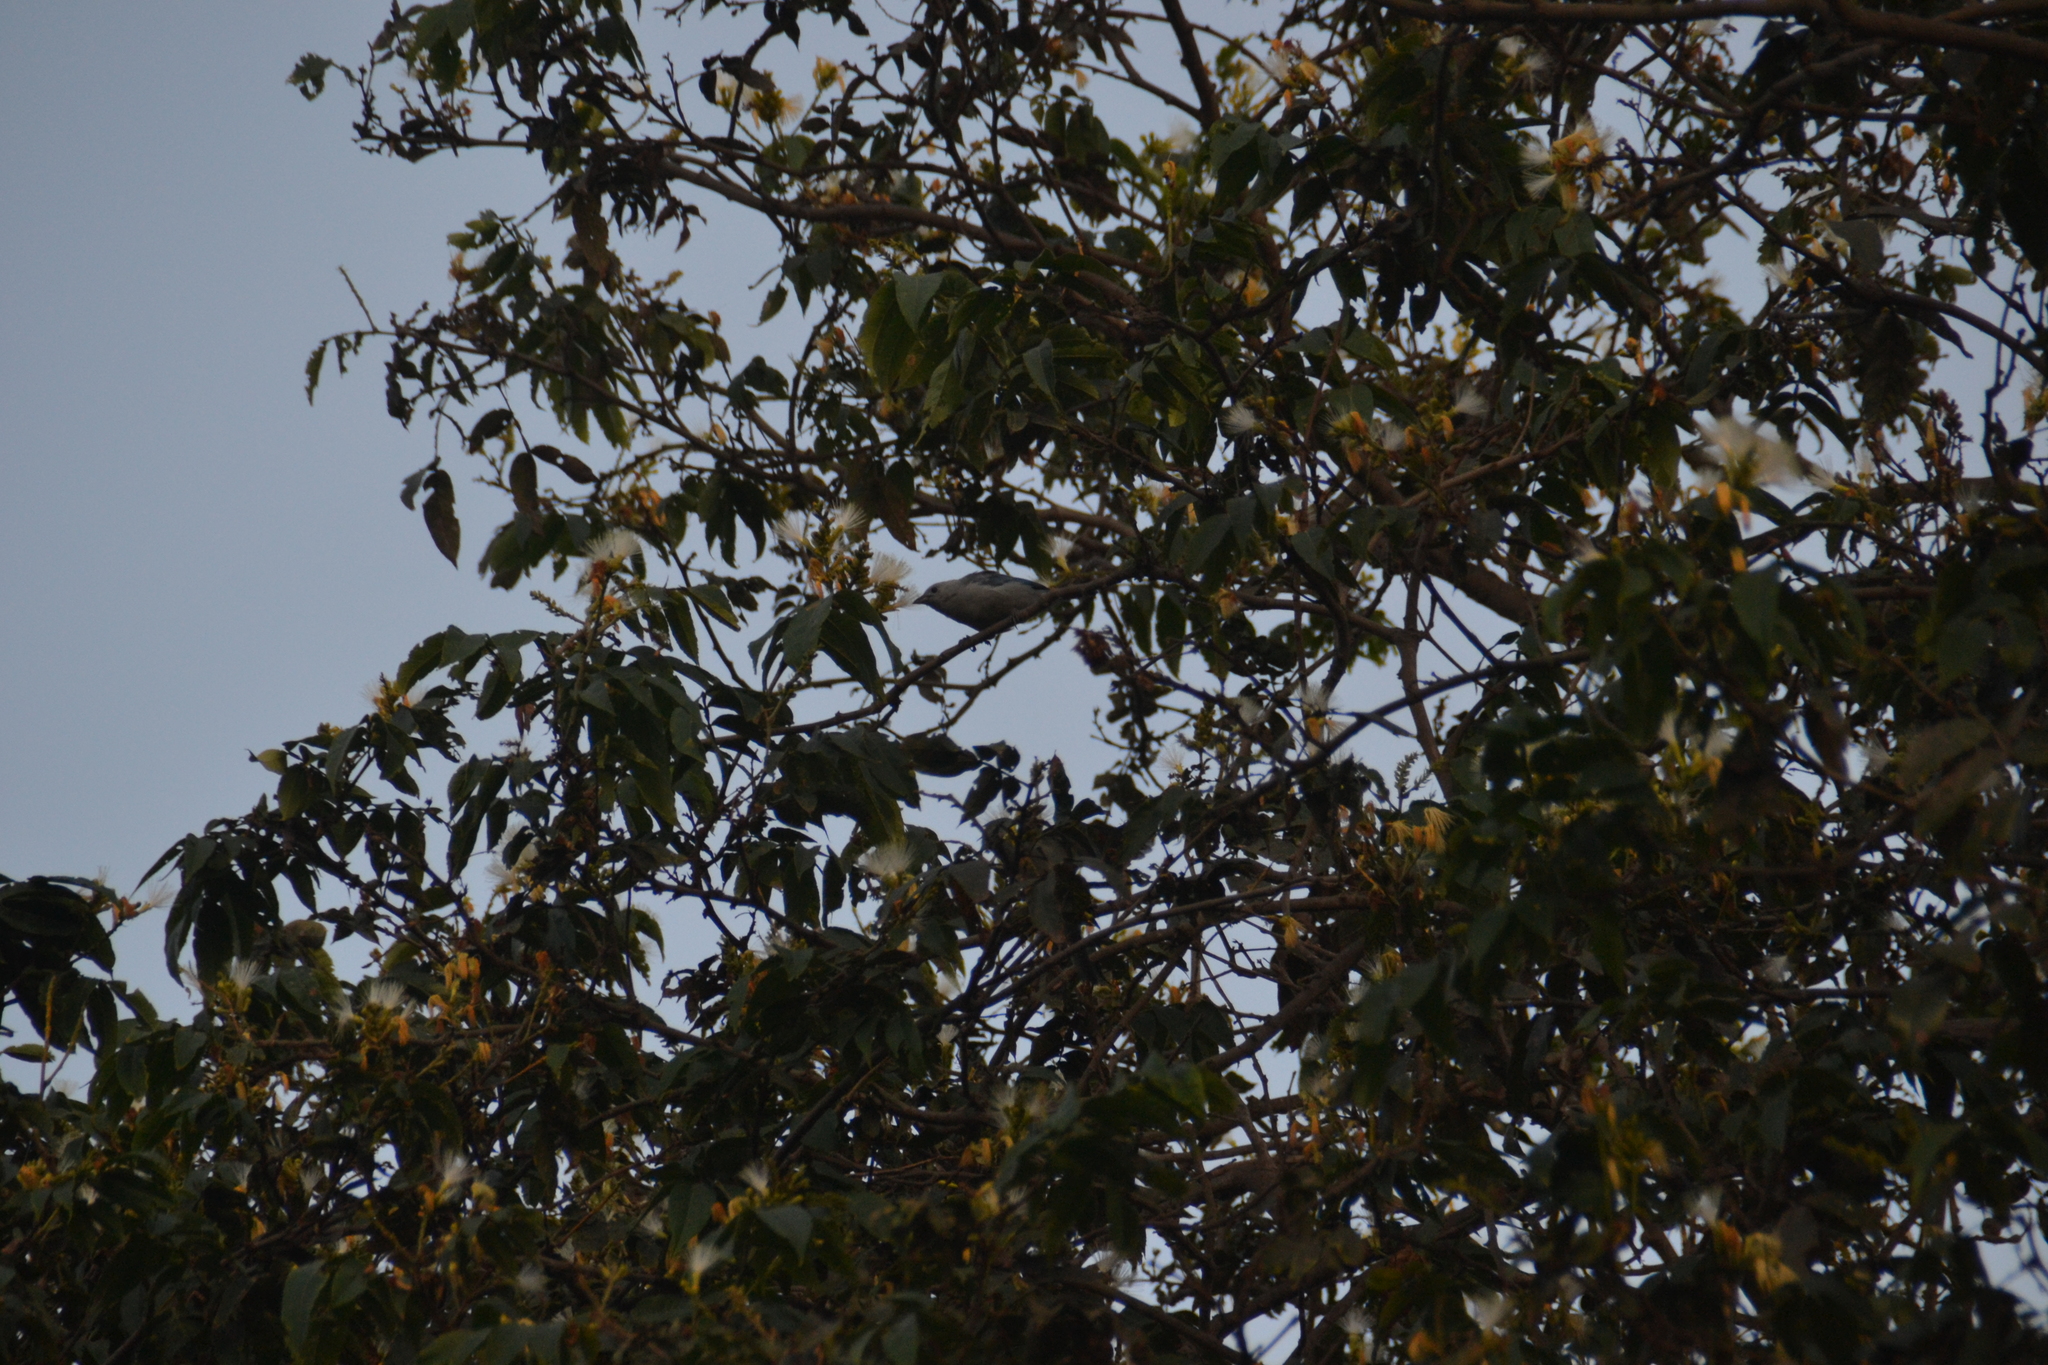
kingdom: Animalia
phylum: Chordata
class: Aves
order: Passeriformes
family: Thraupidae
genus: Thraupis
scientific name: Thraupis episcopus
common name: Blue-grey tanager
